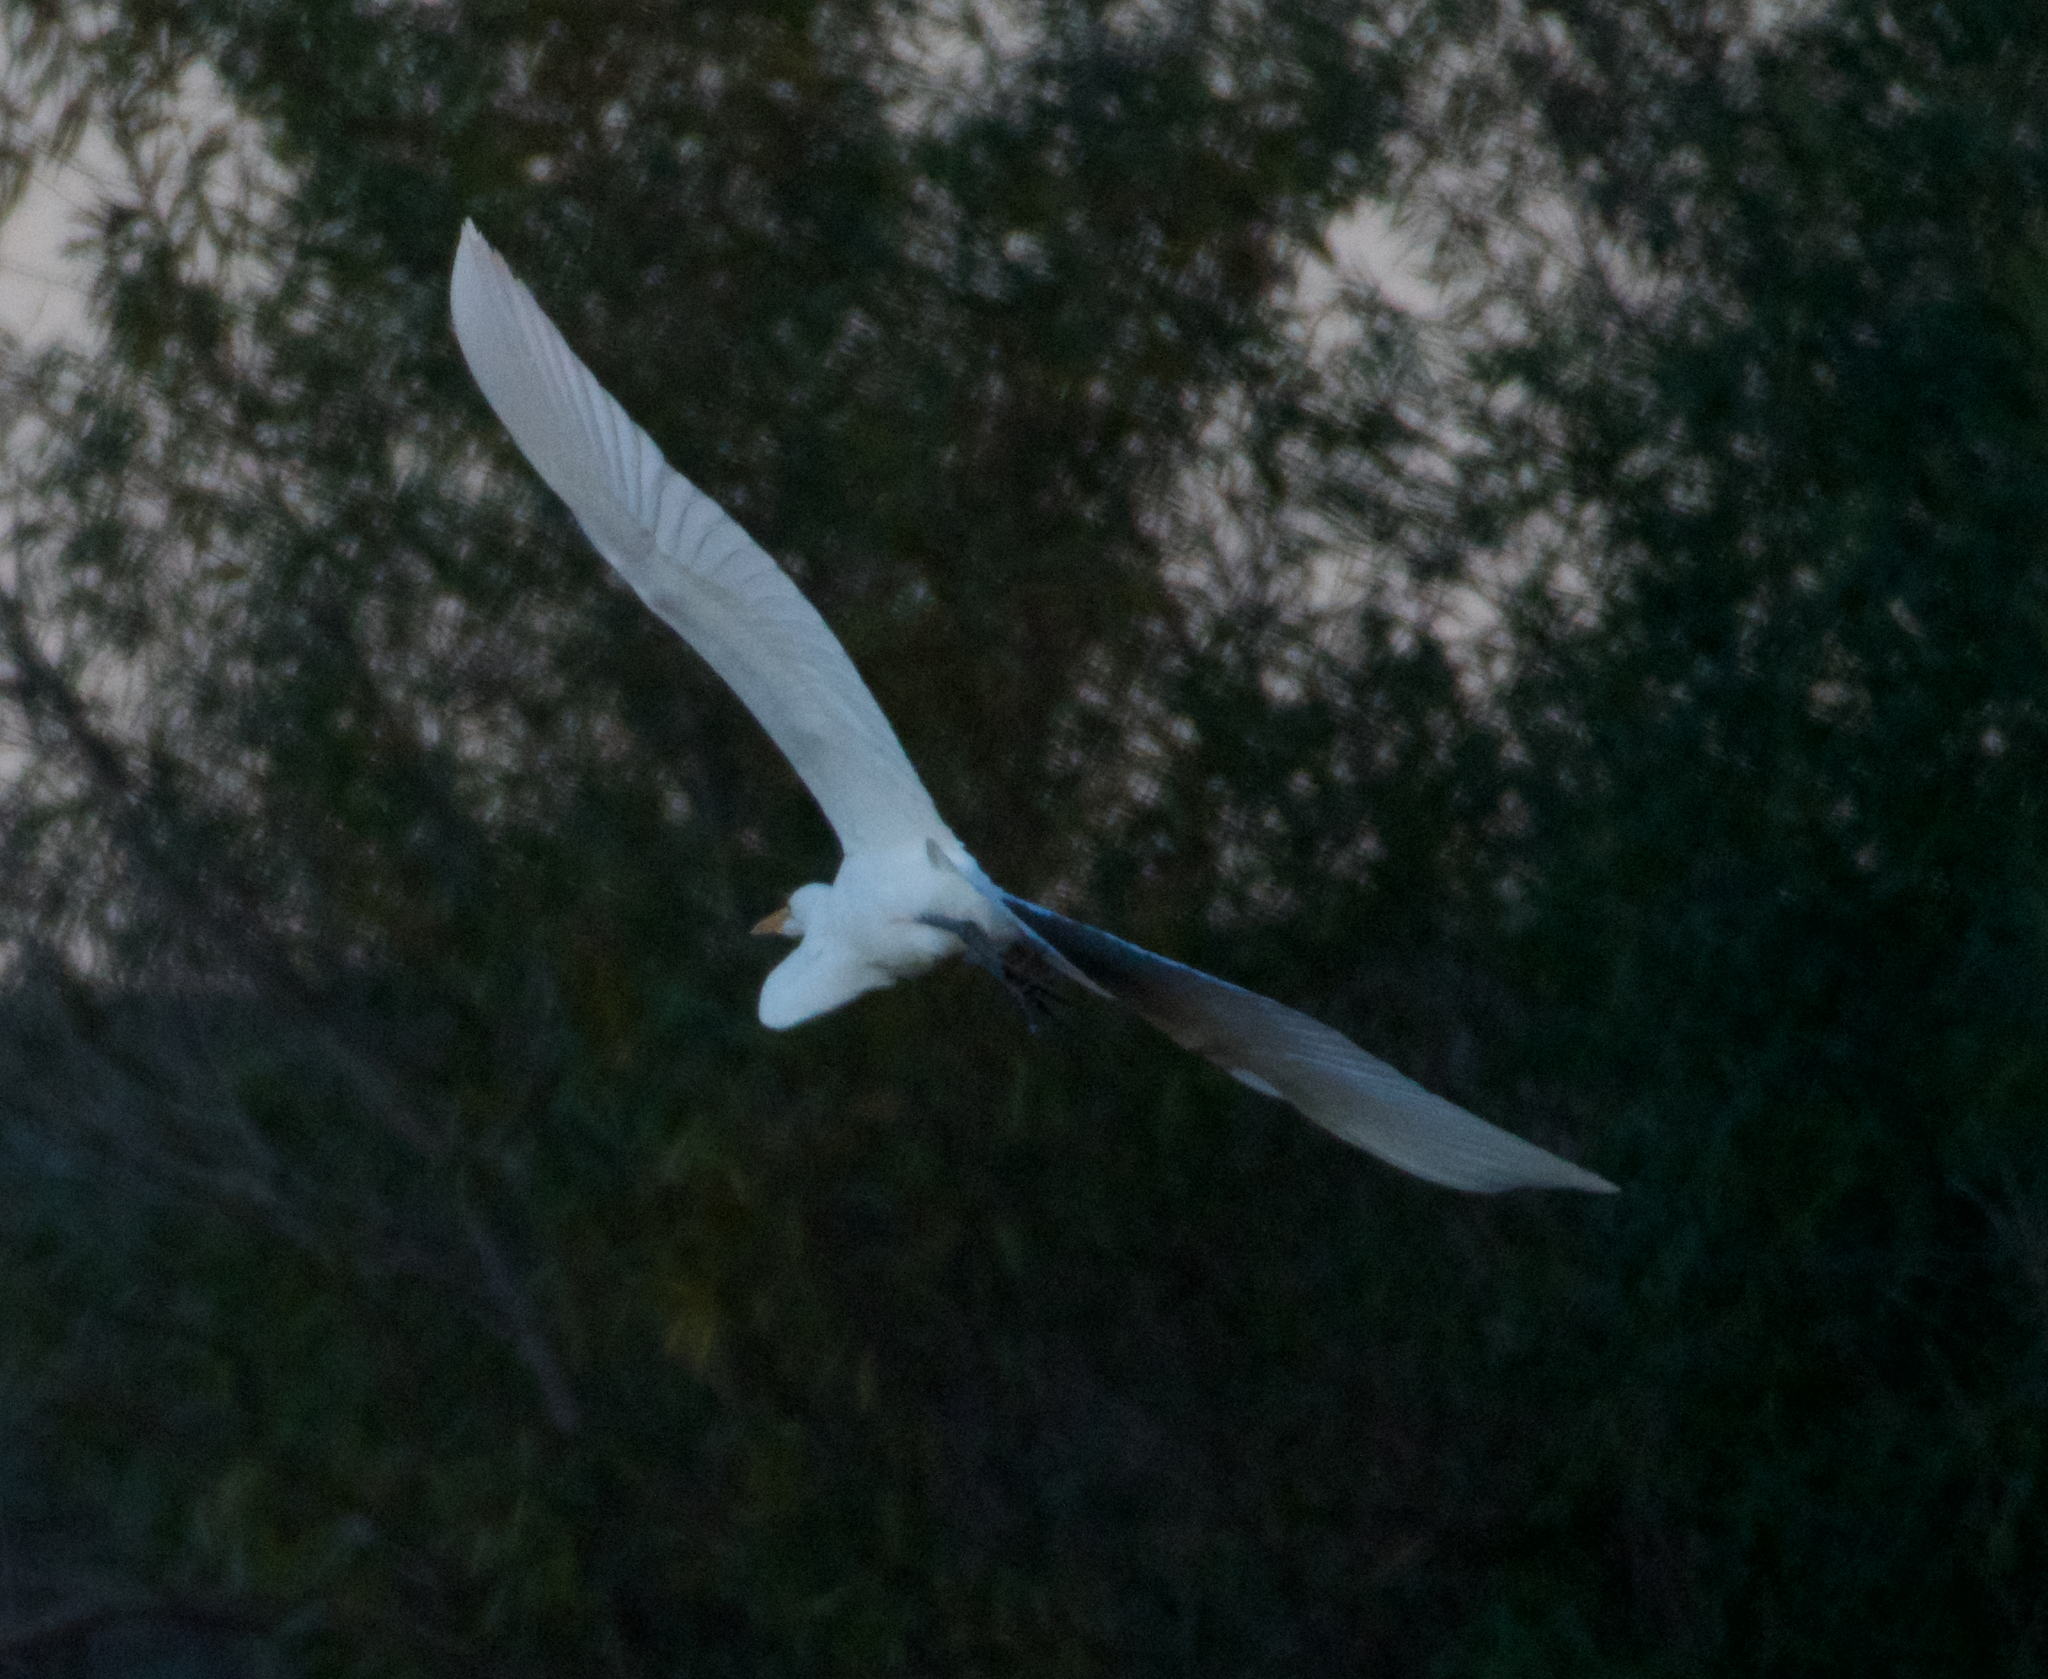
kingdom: Animalia
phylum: Chordata
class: Aves
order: Pelecaniformes
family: Ardeidae
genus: Ardea
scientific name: Ardea alba
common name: Great egret
